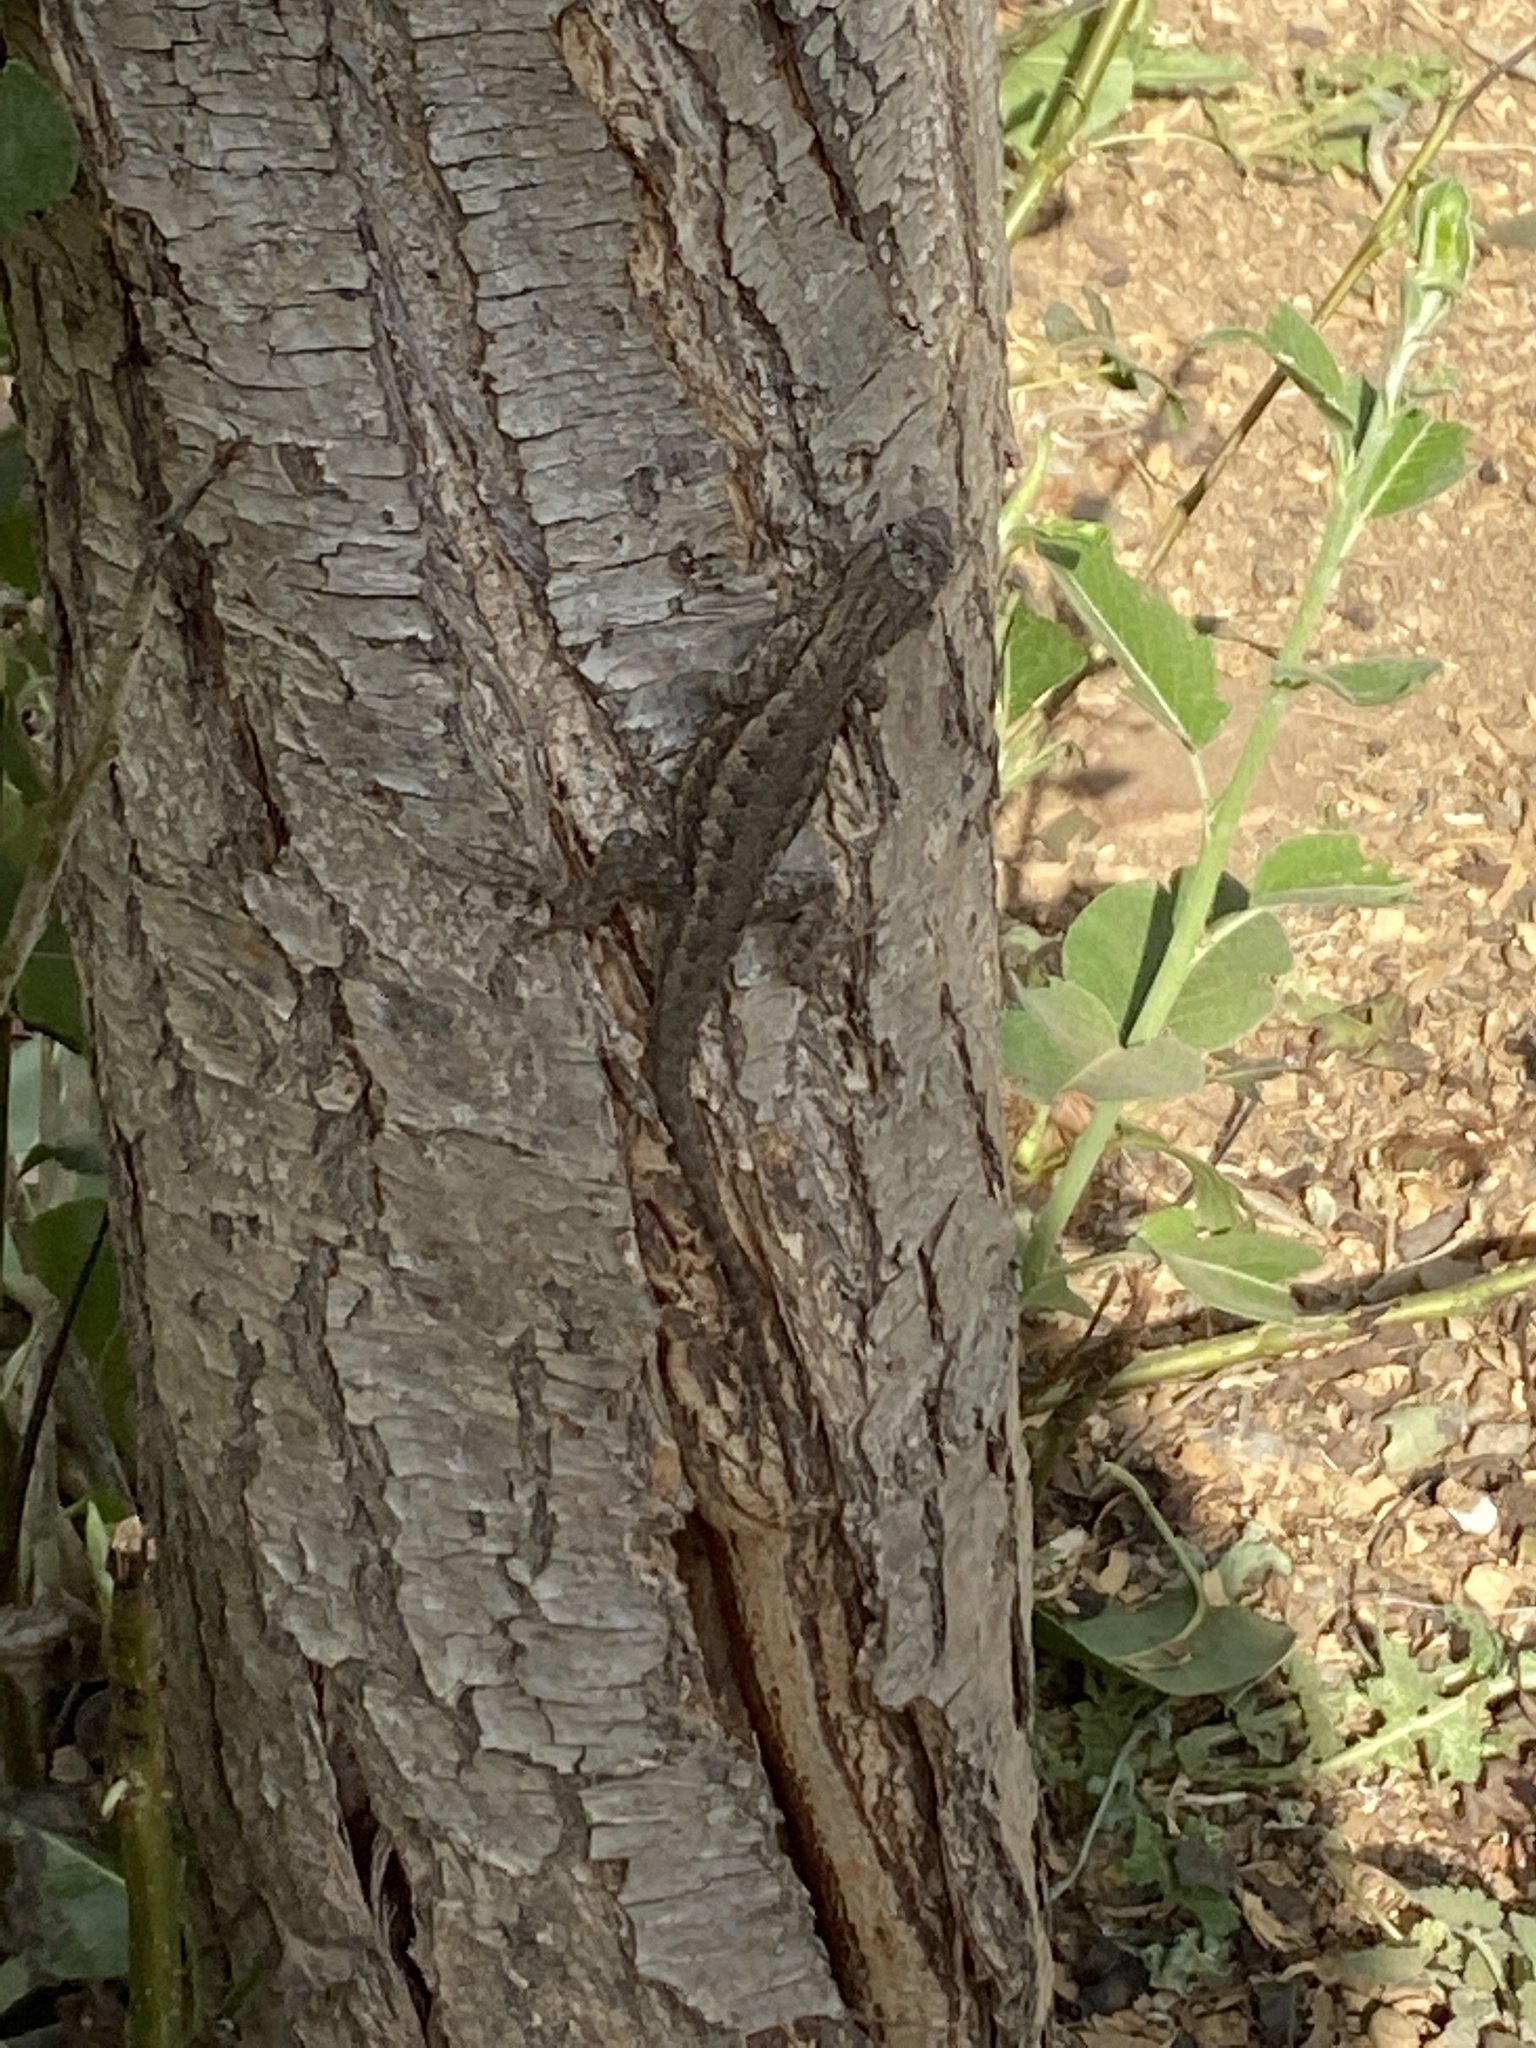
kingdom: Animalia
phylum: Chordata
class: Squamata
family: Phrynosomatidae
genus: Sceloporus
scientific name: Sceloporus occidentalis
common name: Western fence lizard
